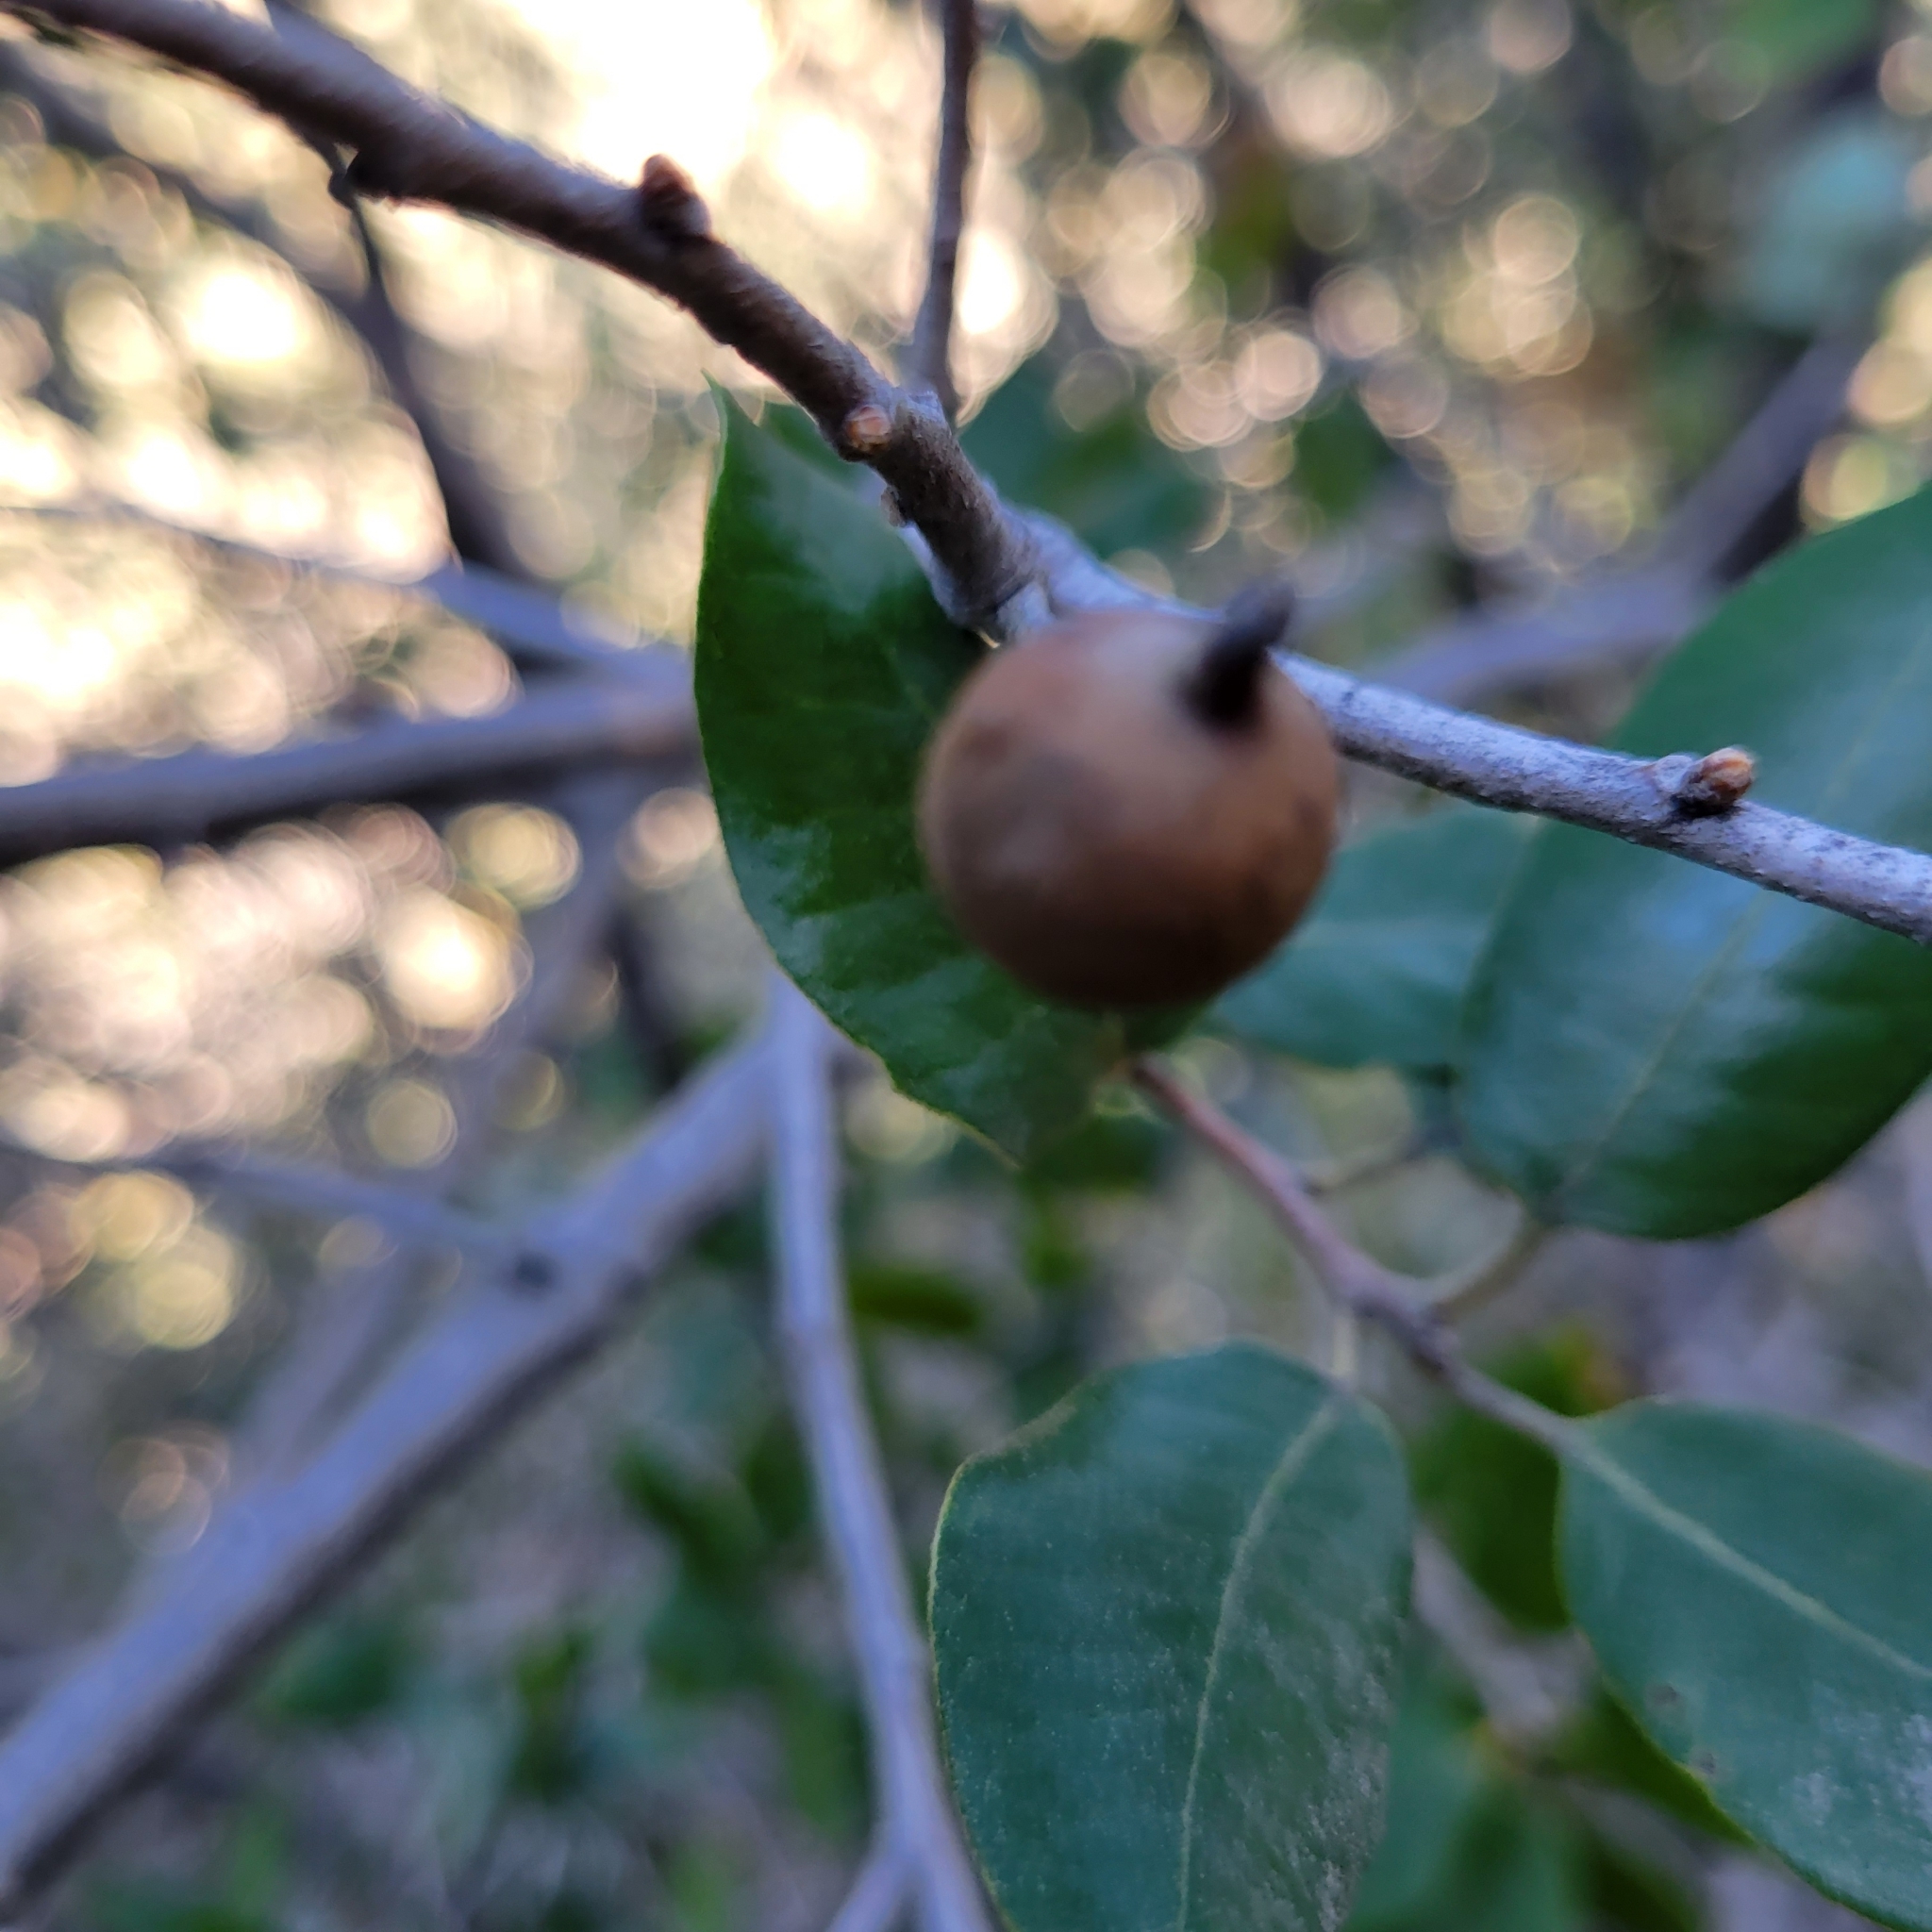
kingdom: Plantae
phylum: Tracheophyta
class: Magnoliopsida
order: Fagales
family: Fagaceae
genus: Quercus
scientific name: Quercus chrysolepis
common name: Canyon live oak
